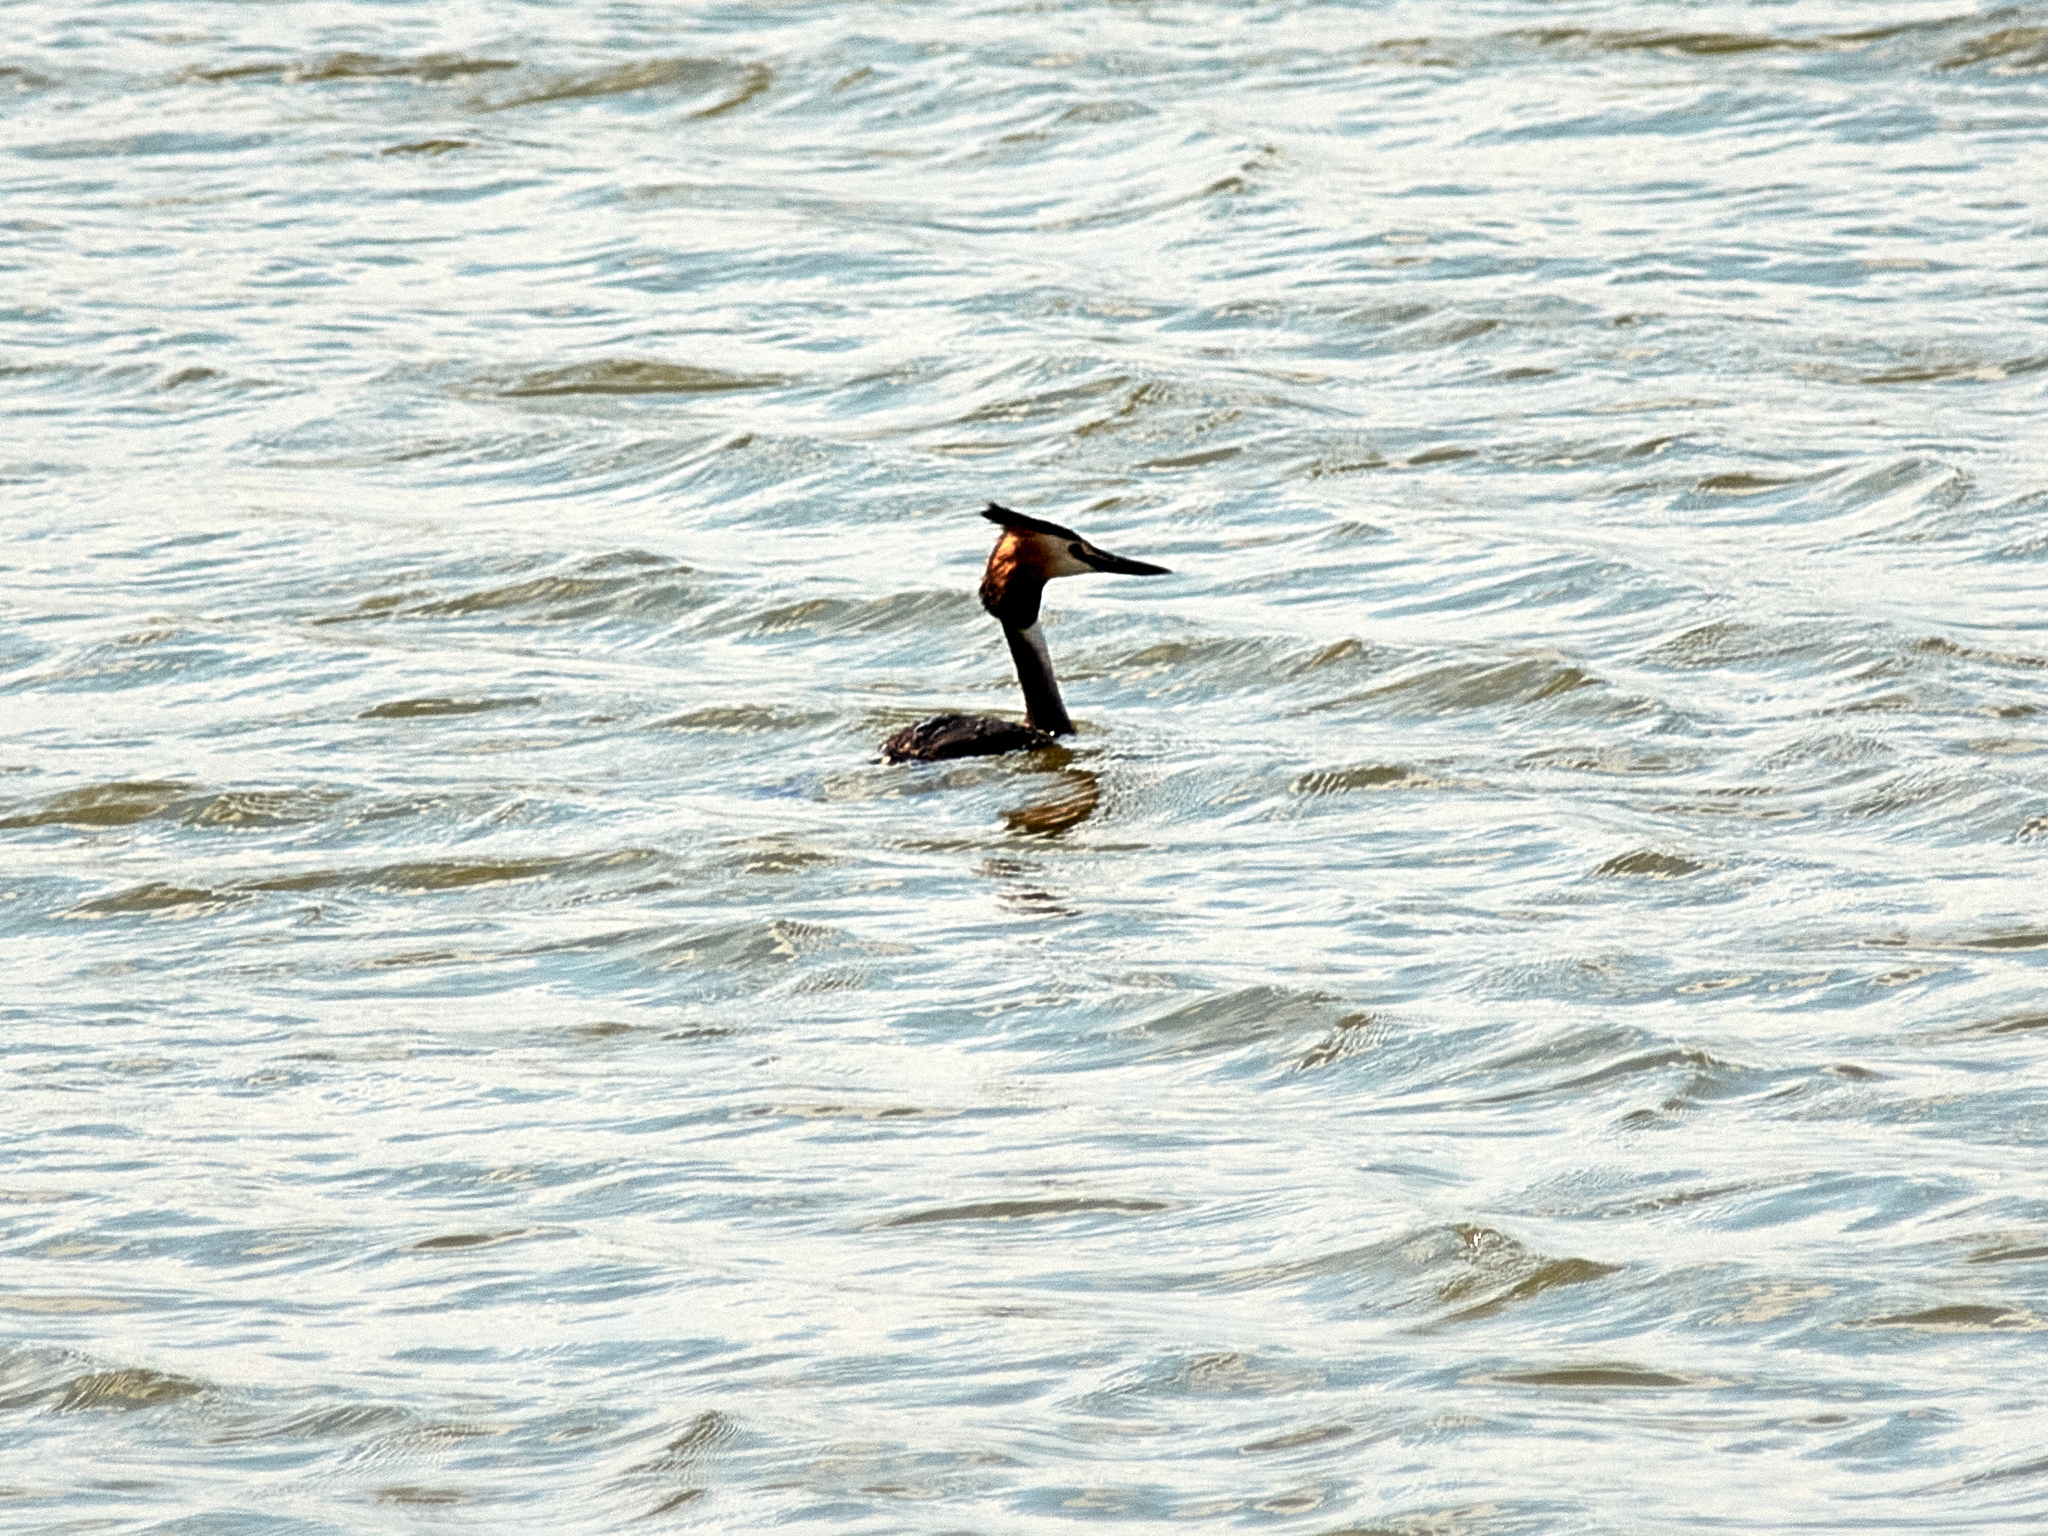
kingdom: Animalia
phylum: Chordata
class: Aves
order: Podicipediformes
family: Podicipedidae
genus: Podiceps
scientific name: Podiceps cristatus
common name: Great crested grebe
